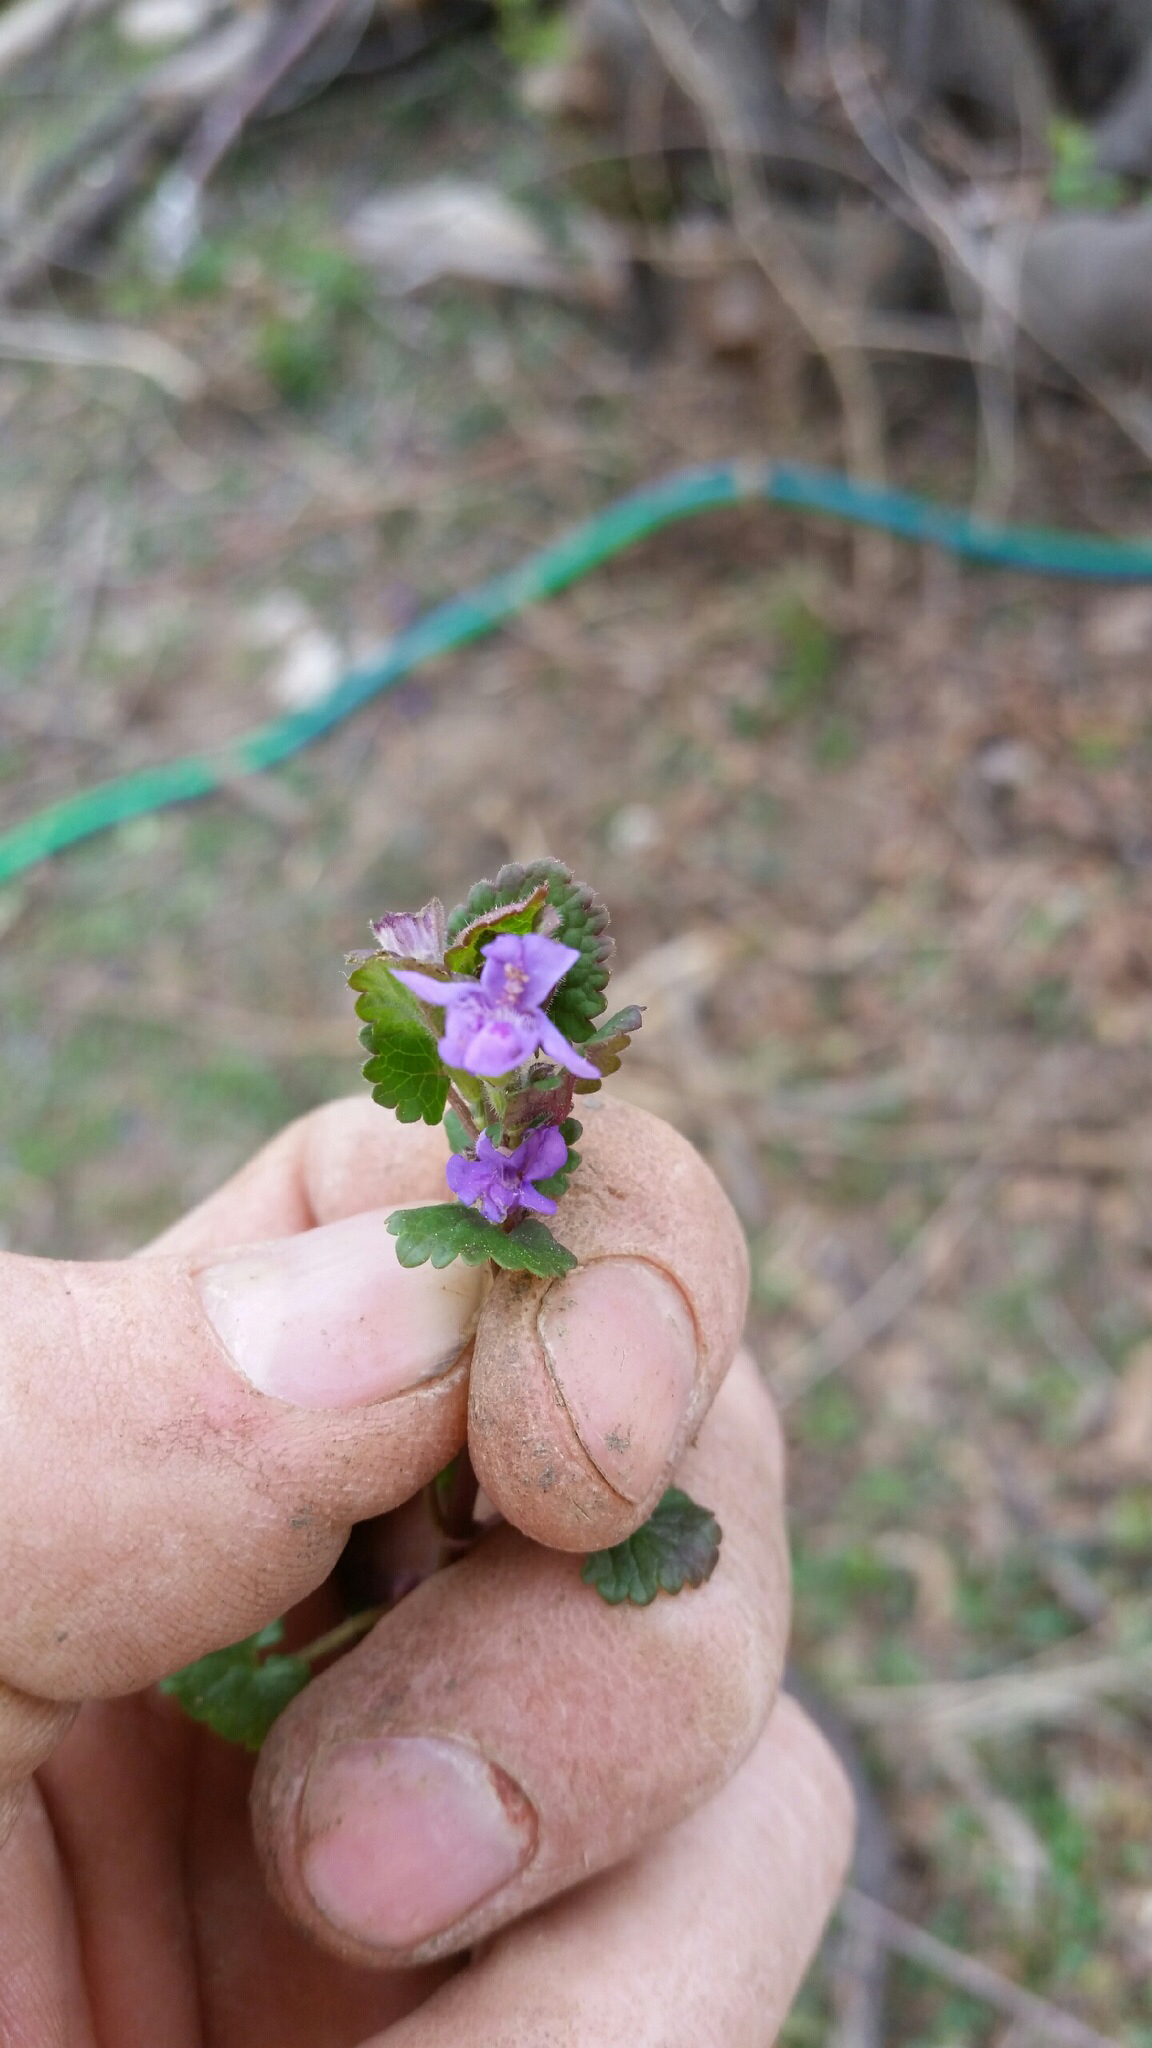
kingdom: Plantae
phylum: Tracheophyta
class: Magnoliopsida
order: Lamiales
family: Lamiaceae
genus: Glechoma
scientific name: Glechoma hederacea
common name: Ground ivy
